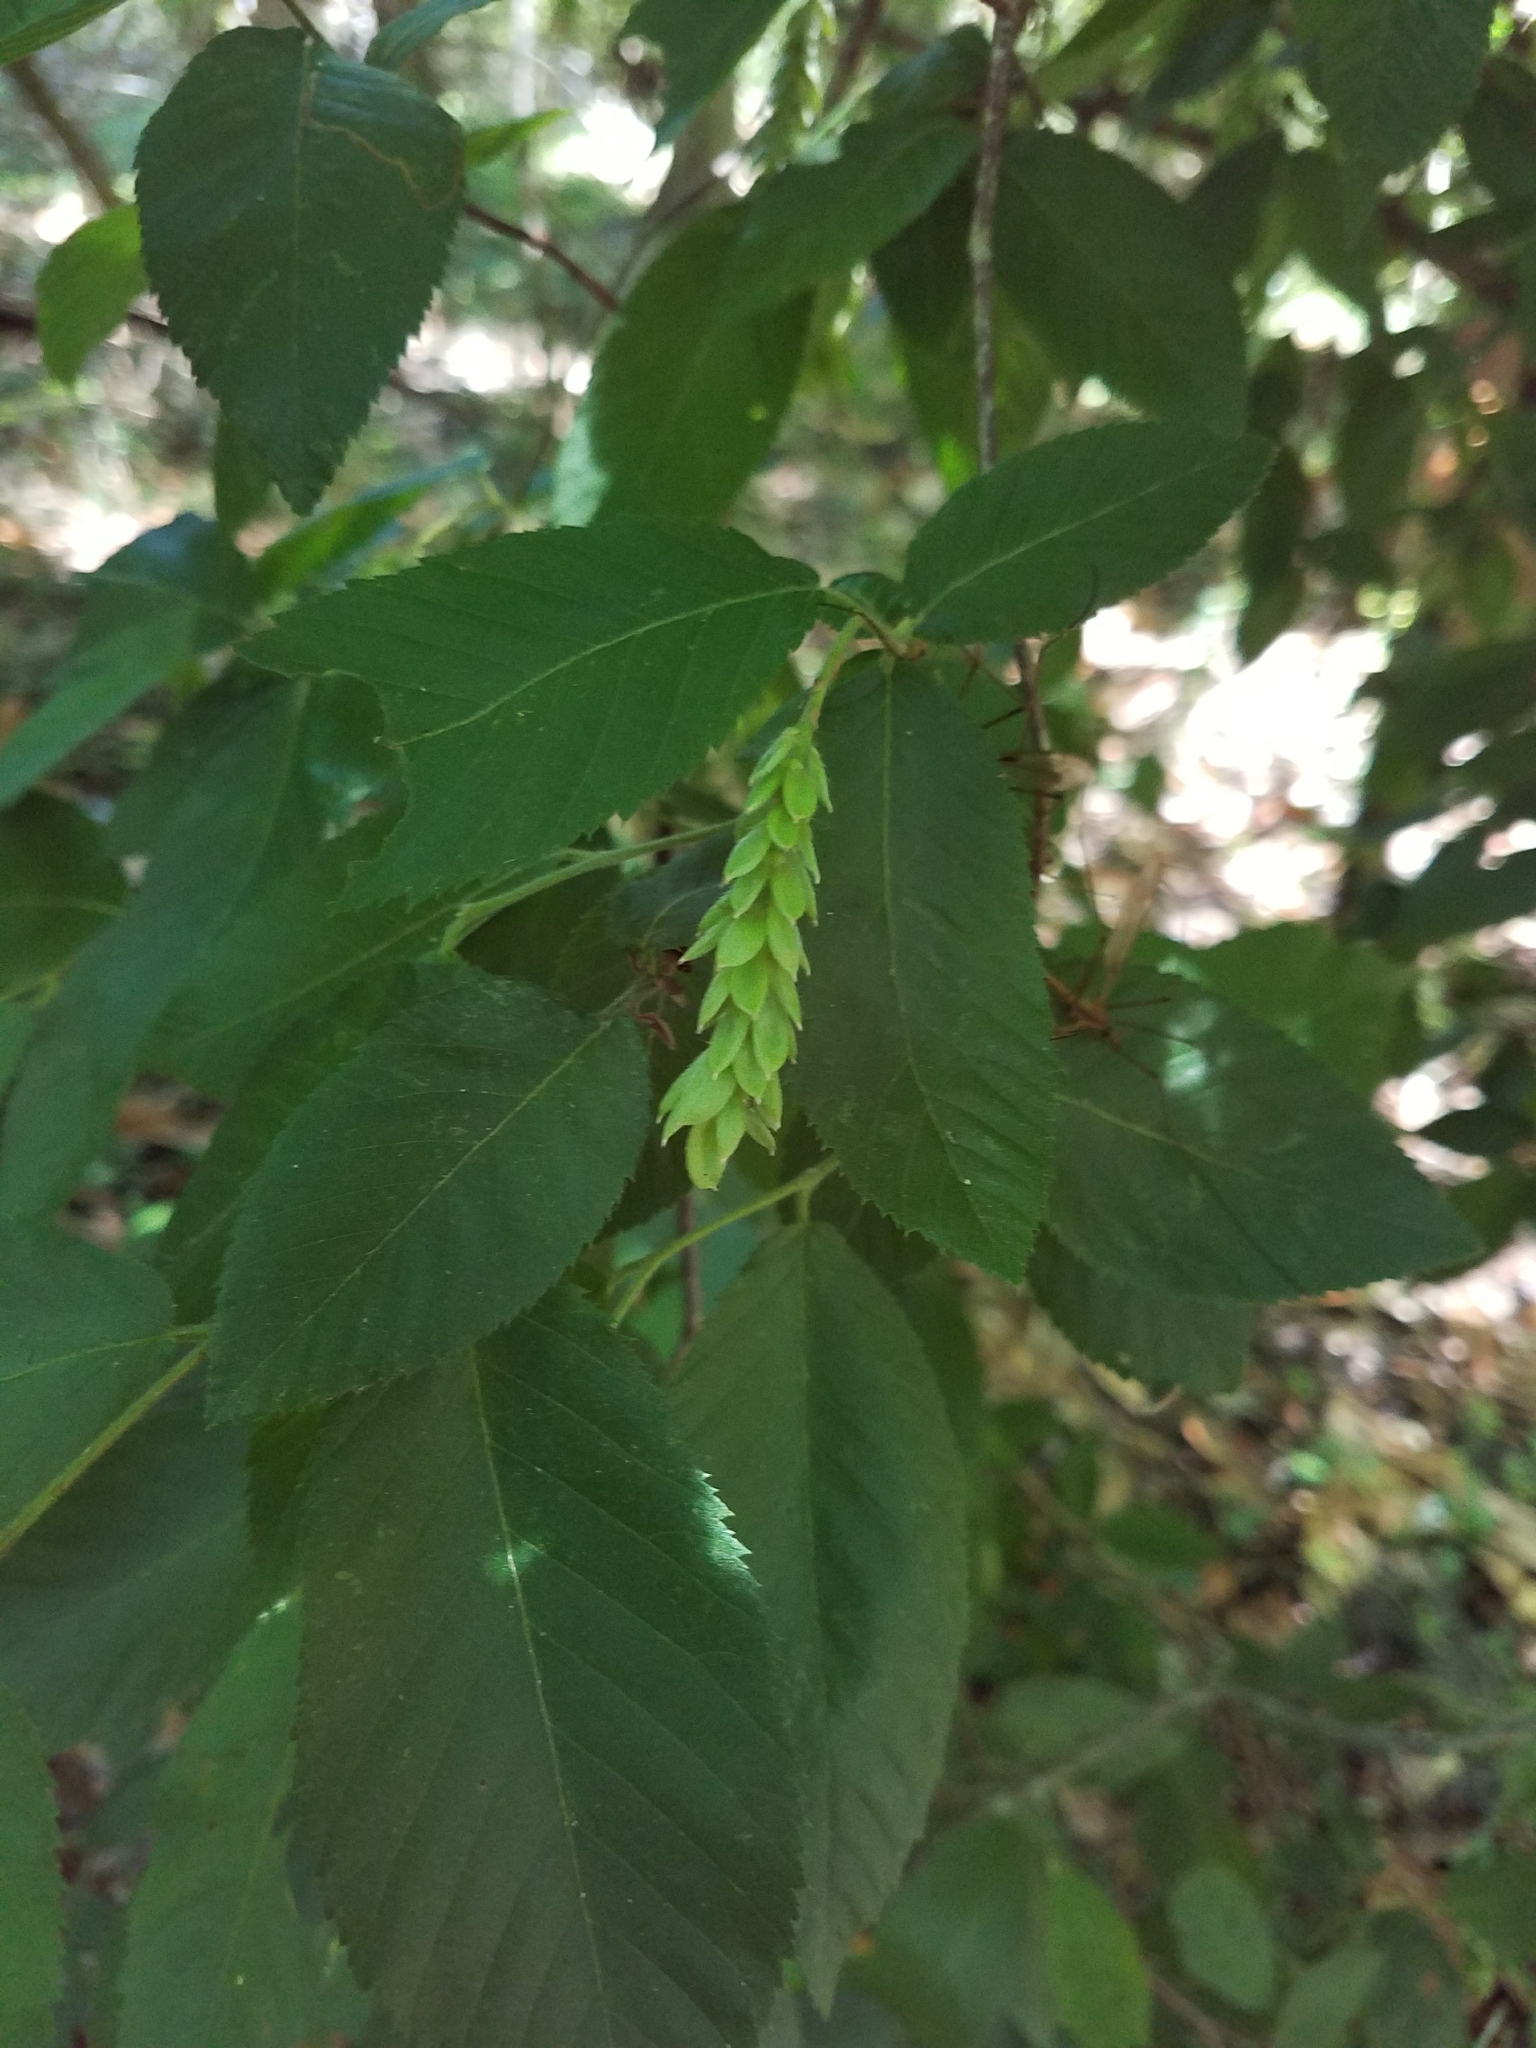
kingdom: Plantae
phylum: Tracheophyta
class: Magnoliopsida
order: Fagales
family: Betulaceae
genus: Ostrya
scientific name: Ostrya virginiana
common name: Ironwood
